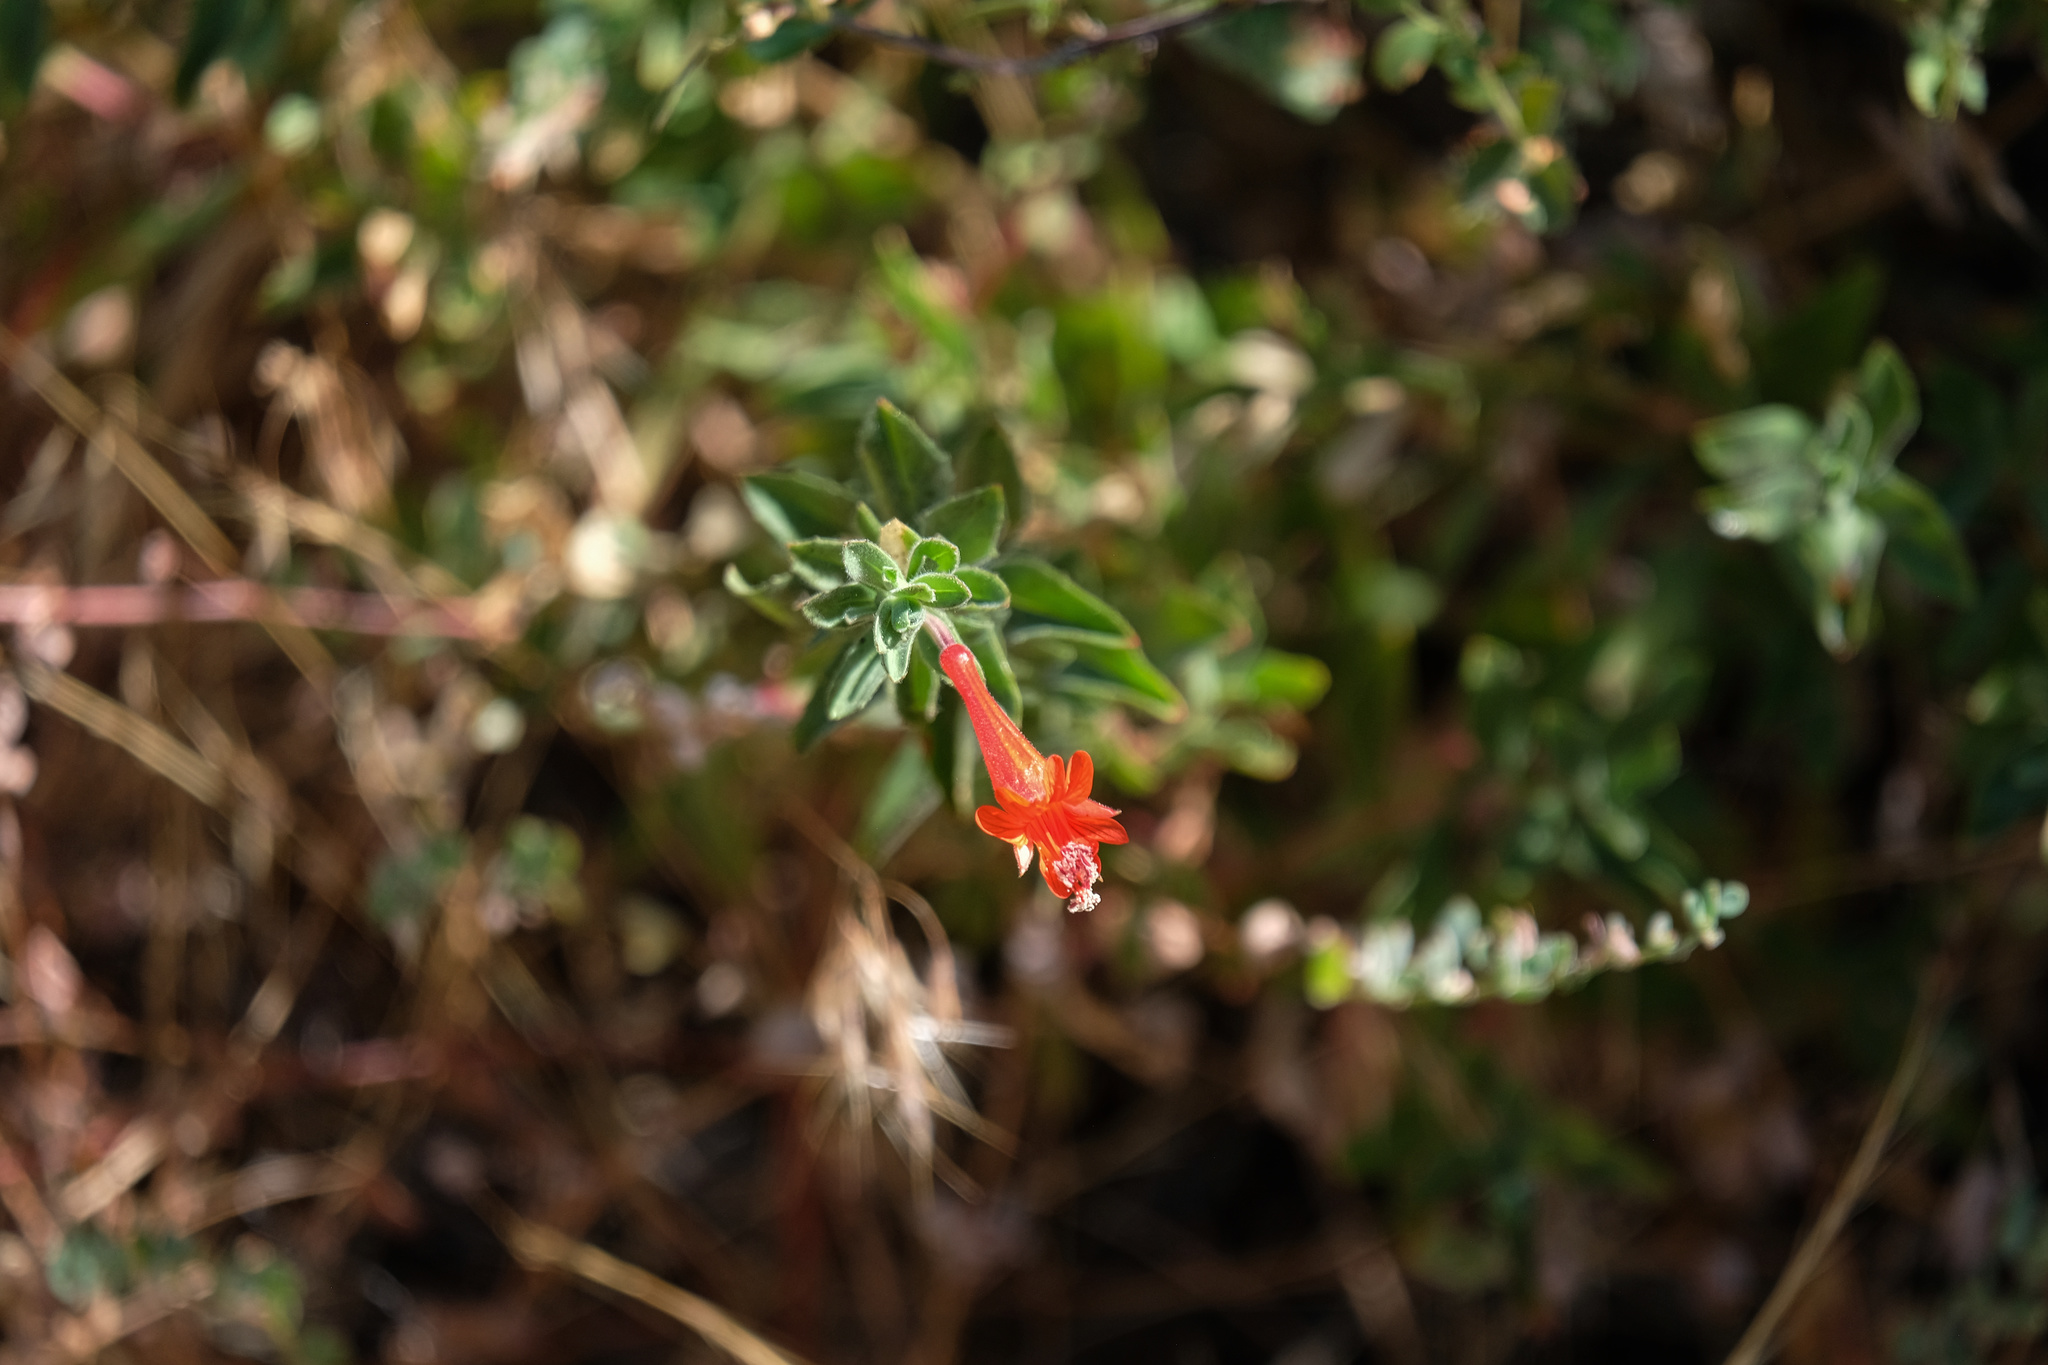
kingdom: Plantae
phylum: Tracheophyta
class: Magnoliopsida
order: Myrtales
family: Onagraceae
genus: Epilobium
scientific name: Epilobium canum
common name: California-fuchsia
